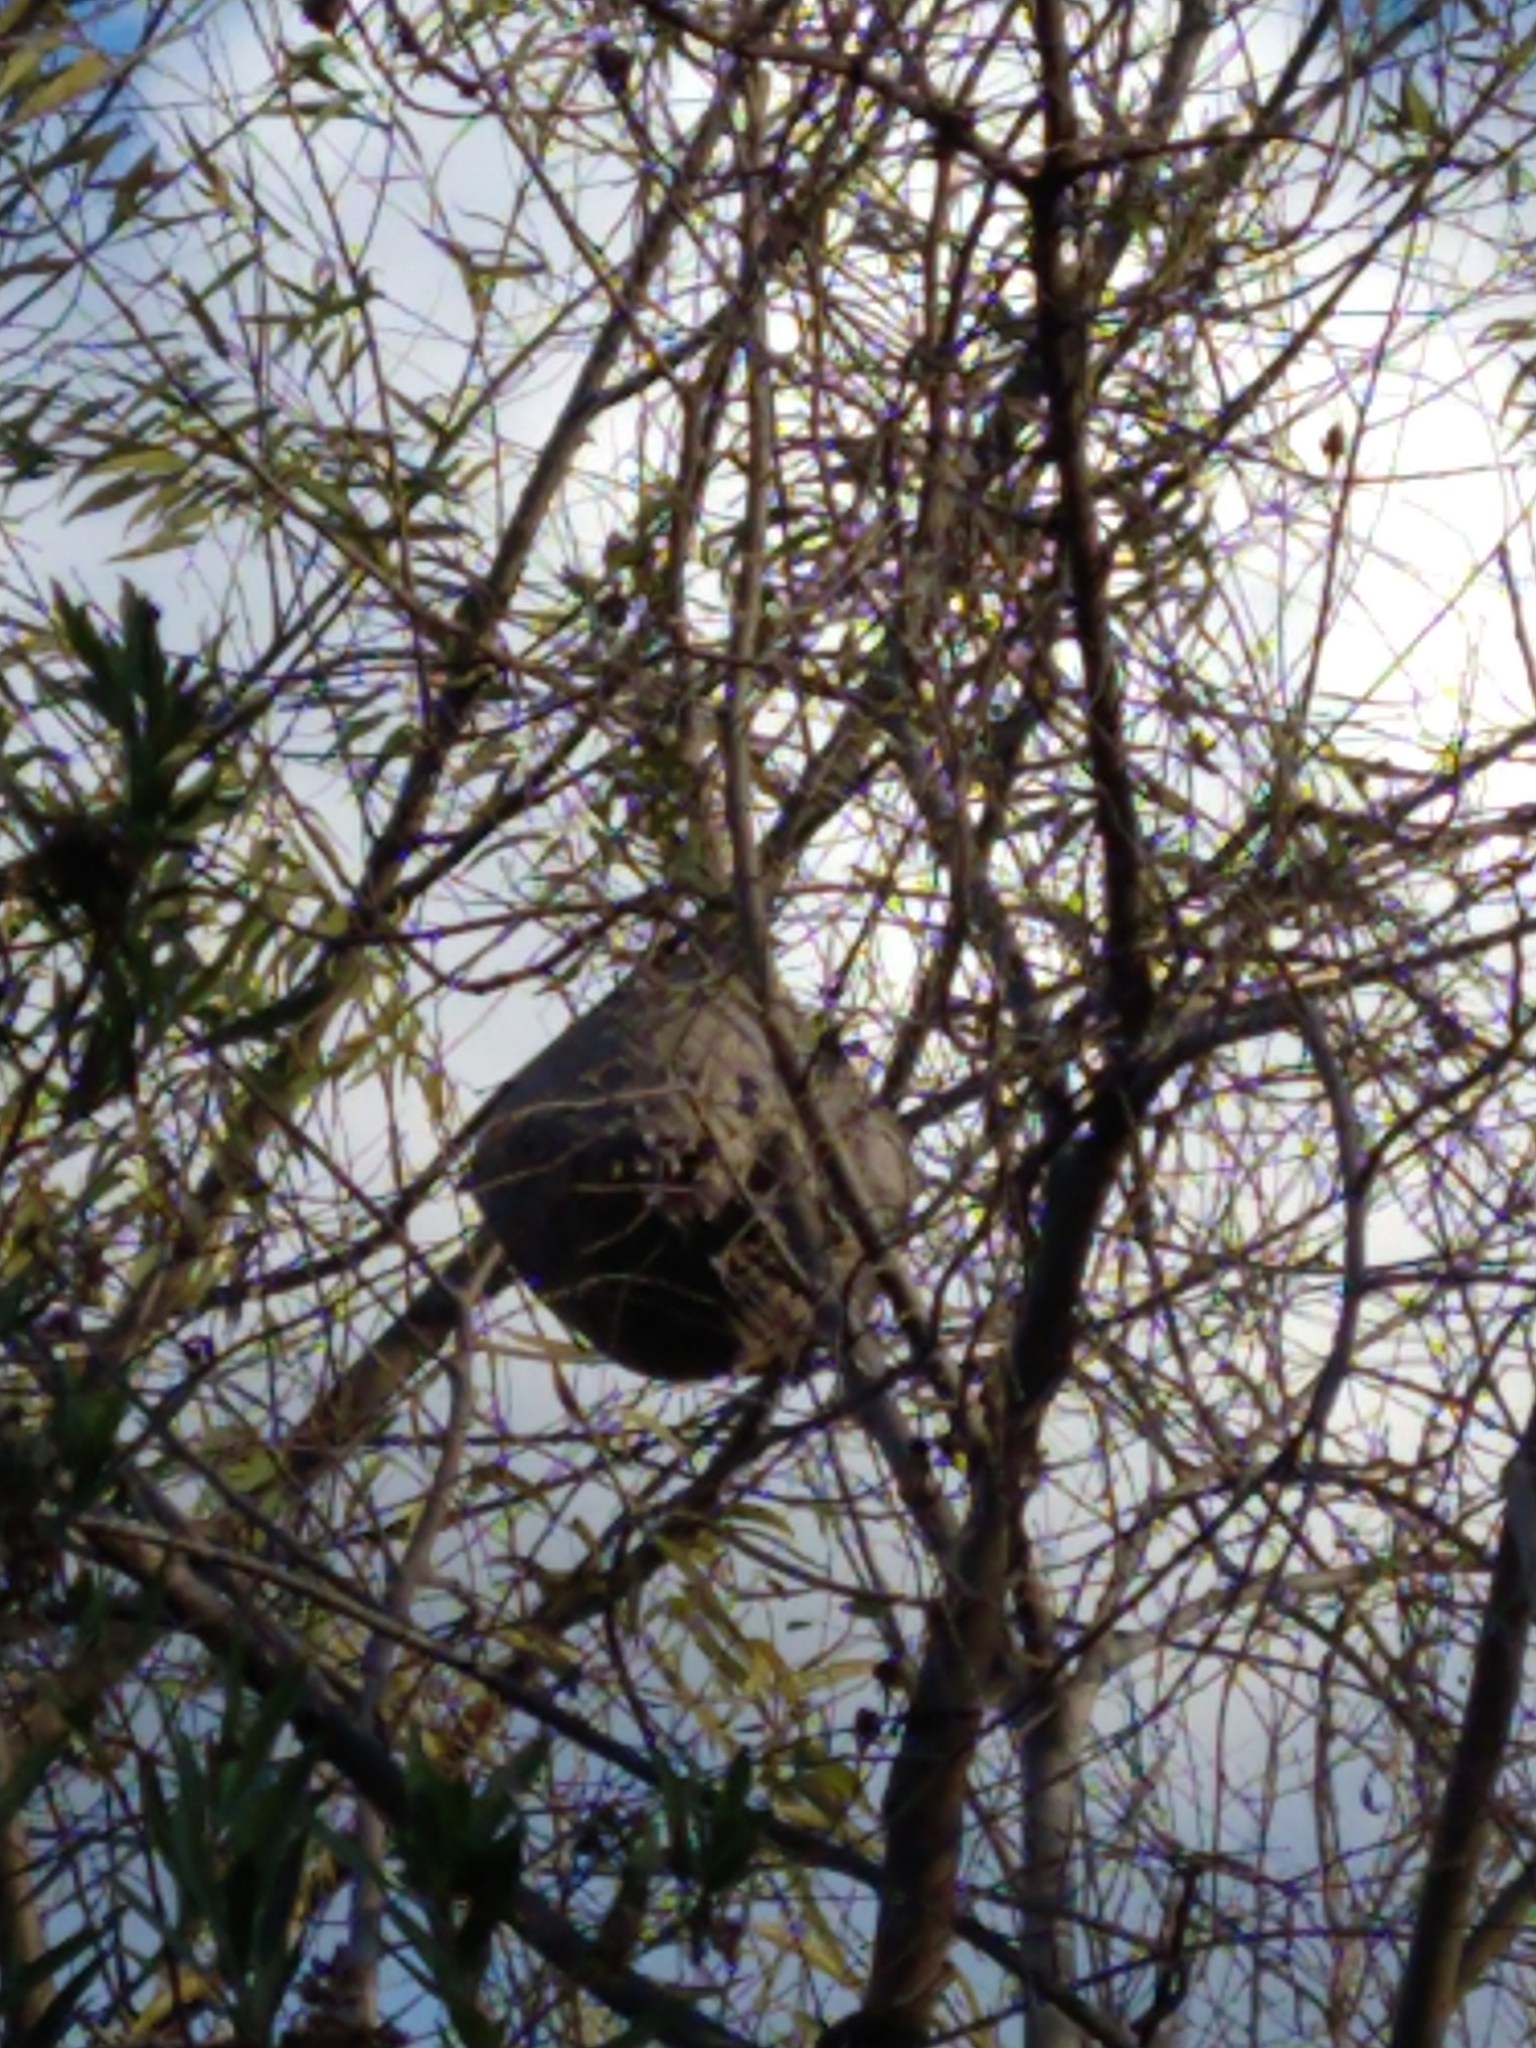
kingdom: Animalia
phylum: Arthropoda
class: Insecta
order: Hymenoptera
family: Eumenidae
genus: Polybia
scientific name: Polybia occidentalis
